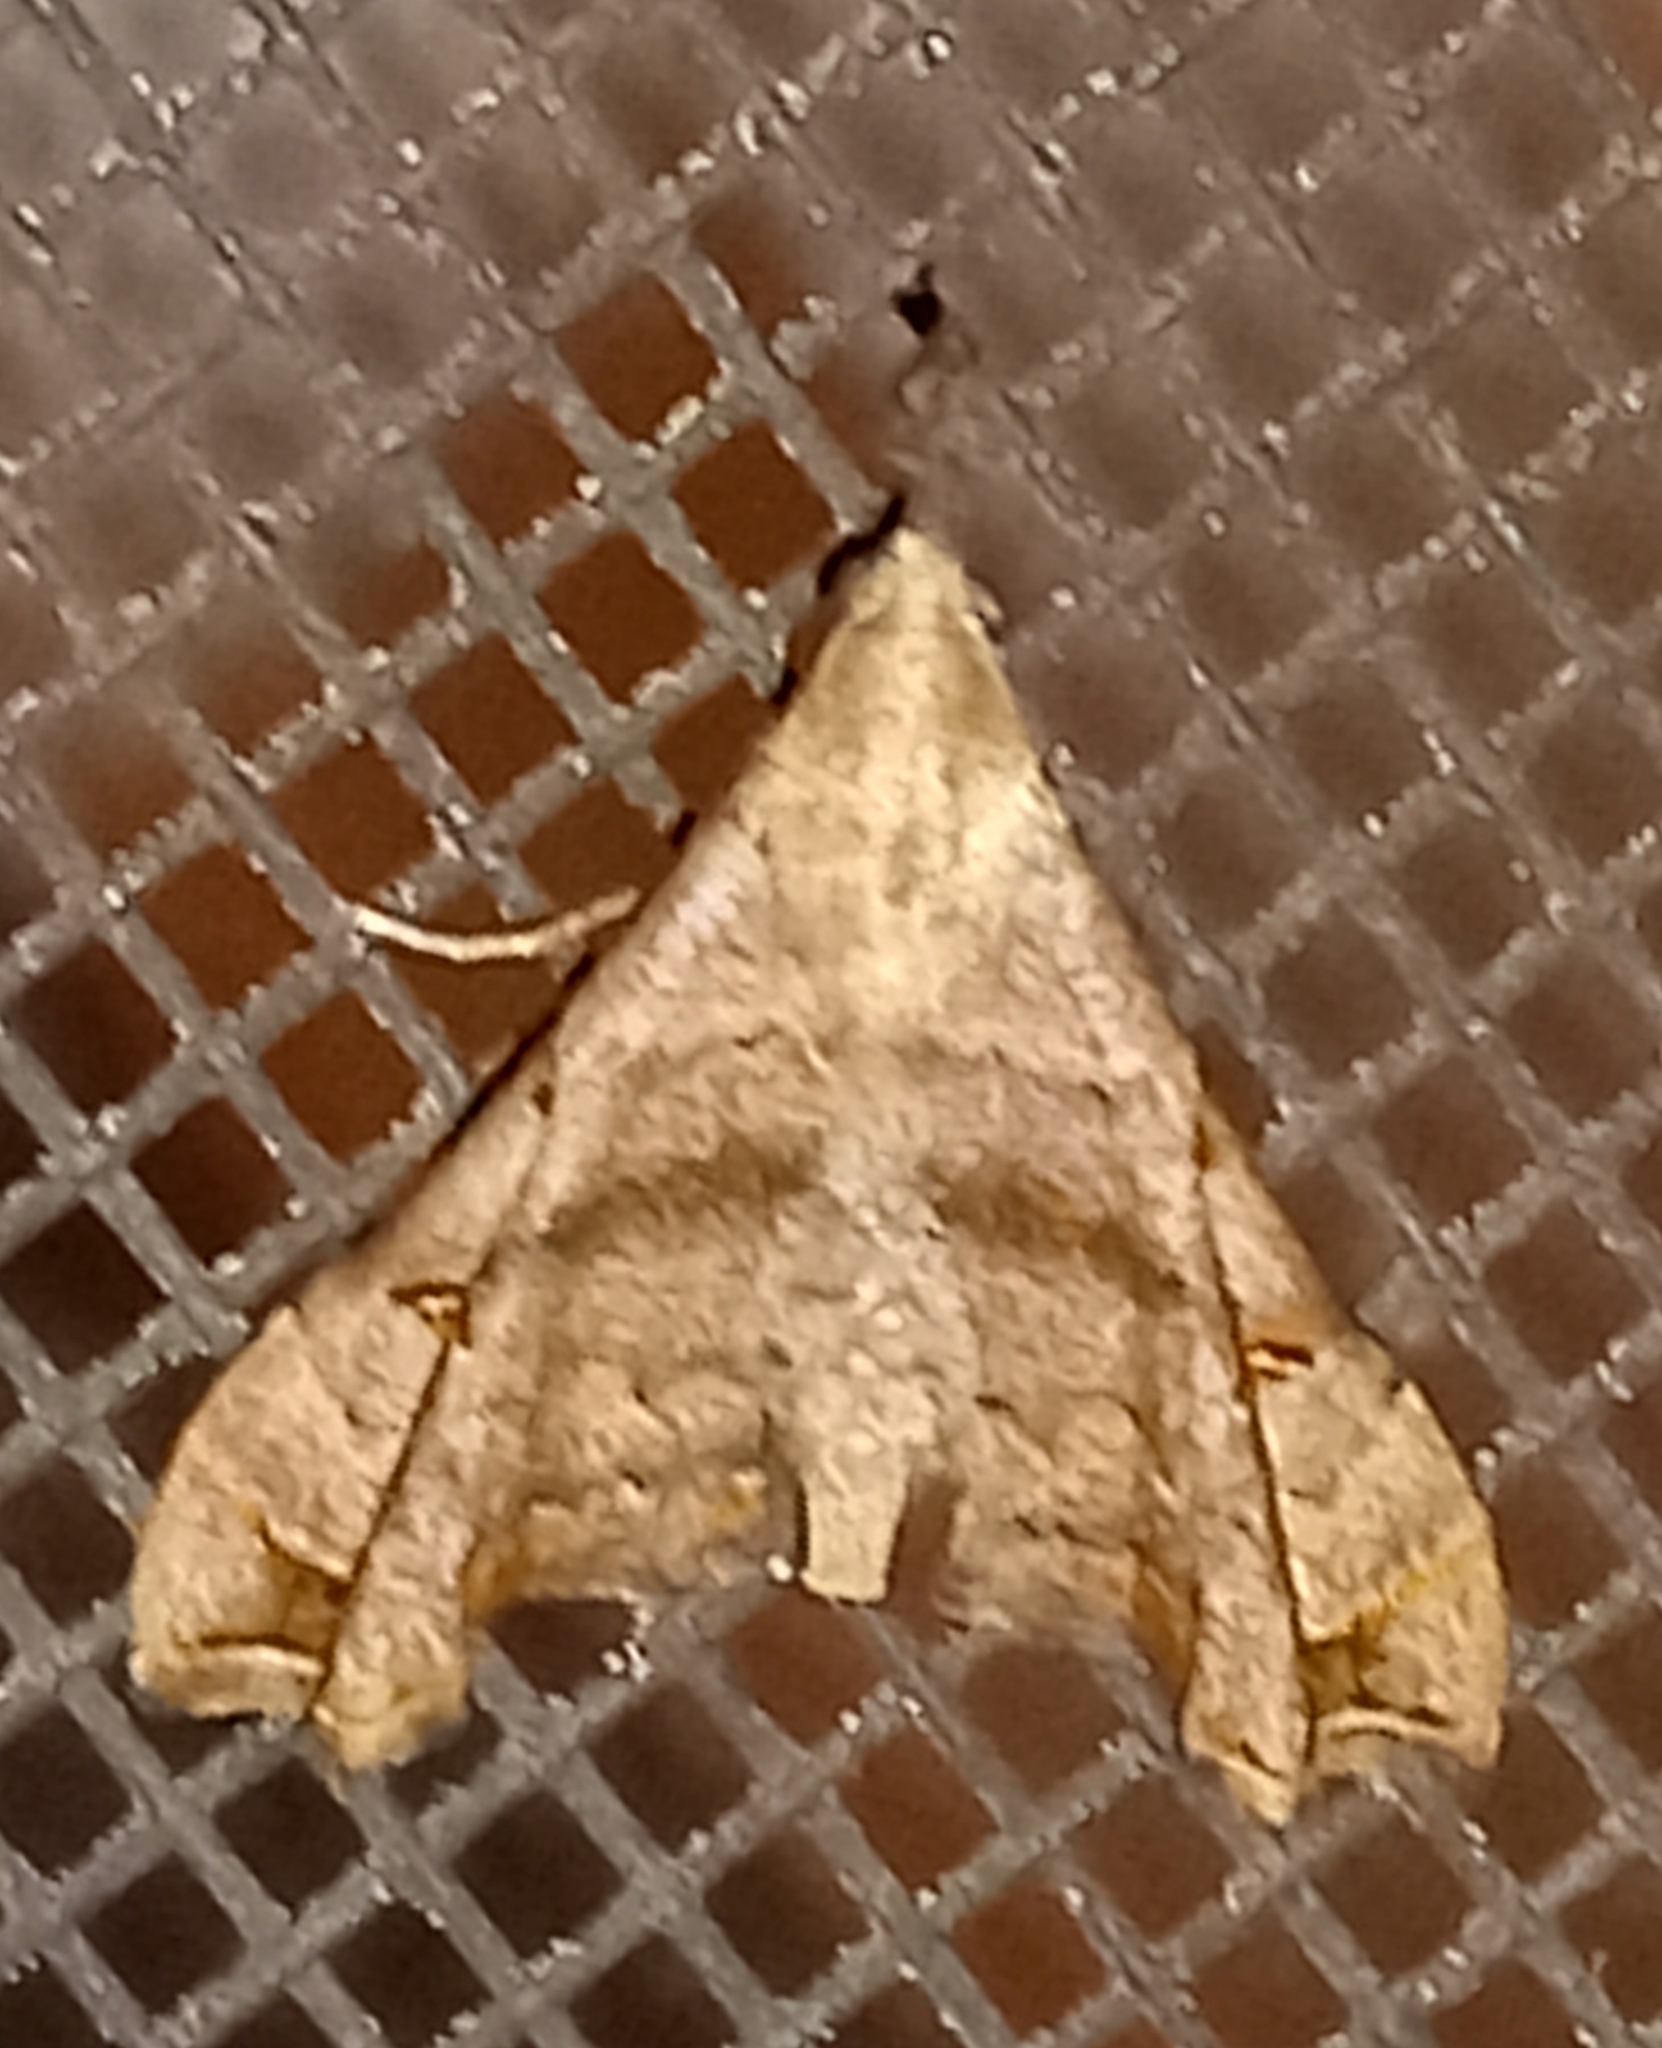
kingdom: Animalia
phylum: Arthropoda
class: Insecta
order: Lepidoptera
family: Erebidae
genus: Palthis
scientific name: Palthis asopialis
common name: Faint-spotted palthis moth
